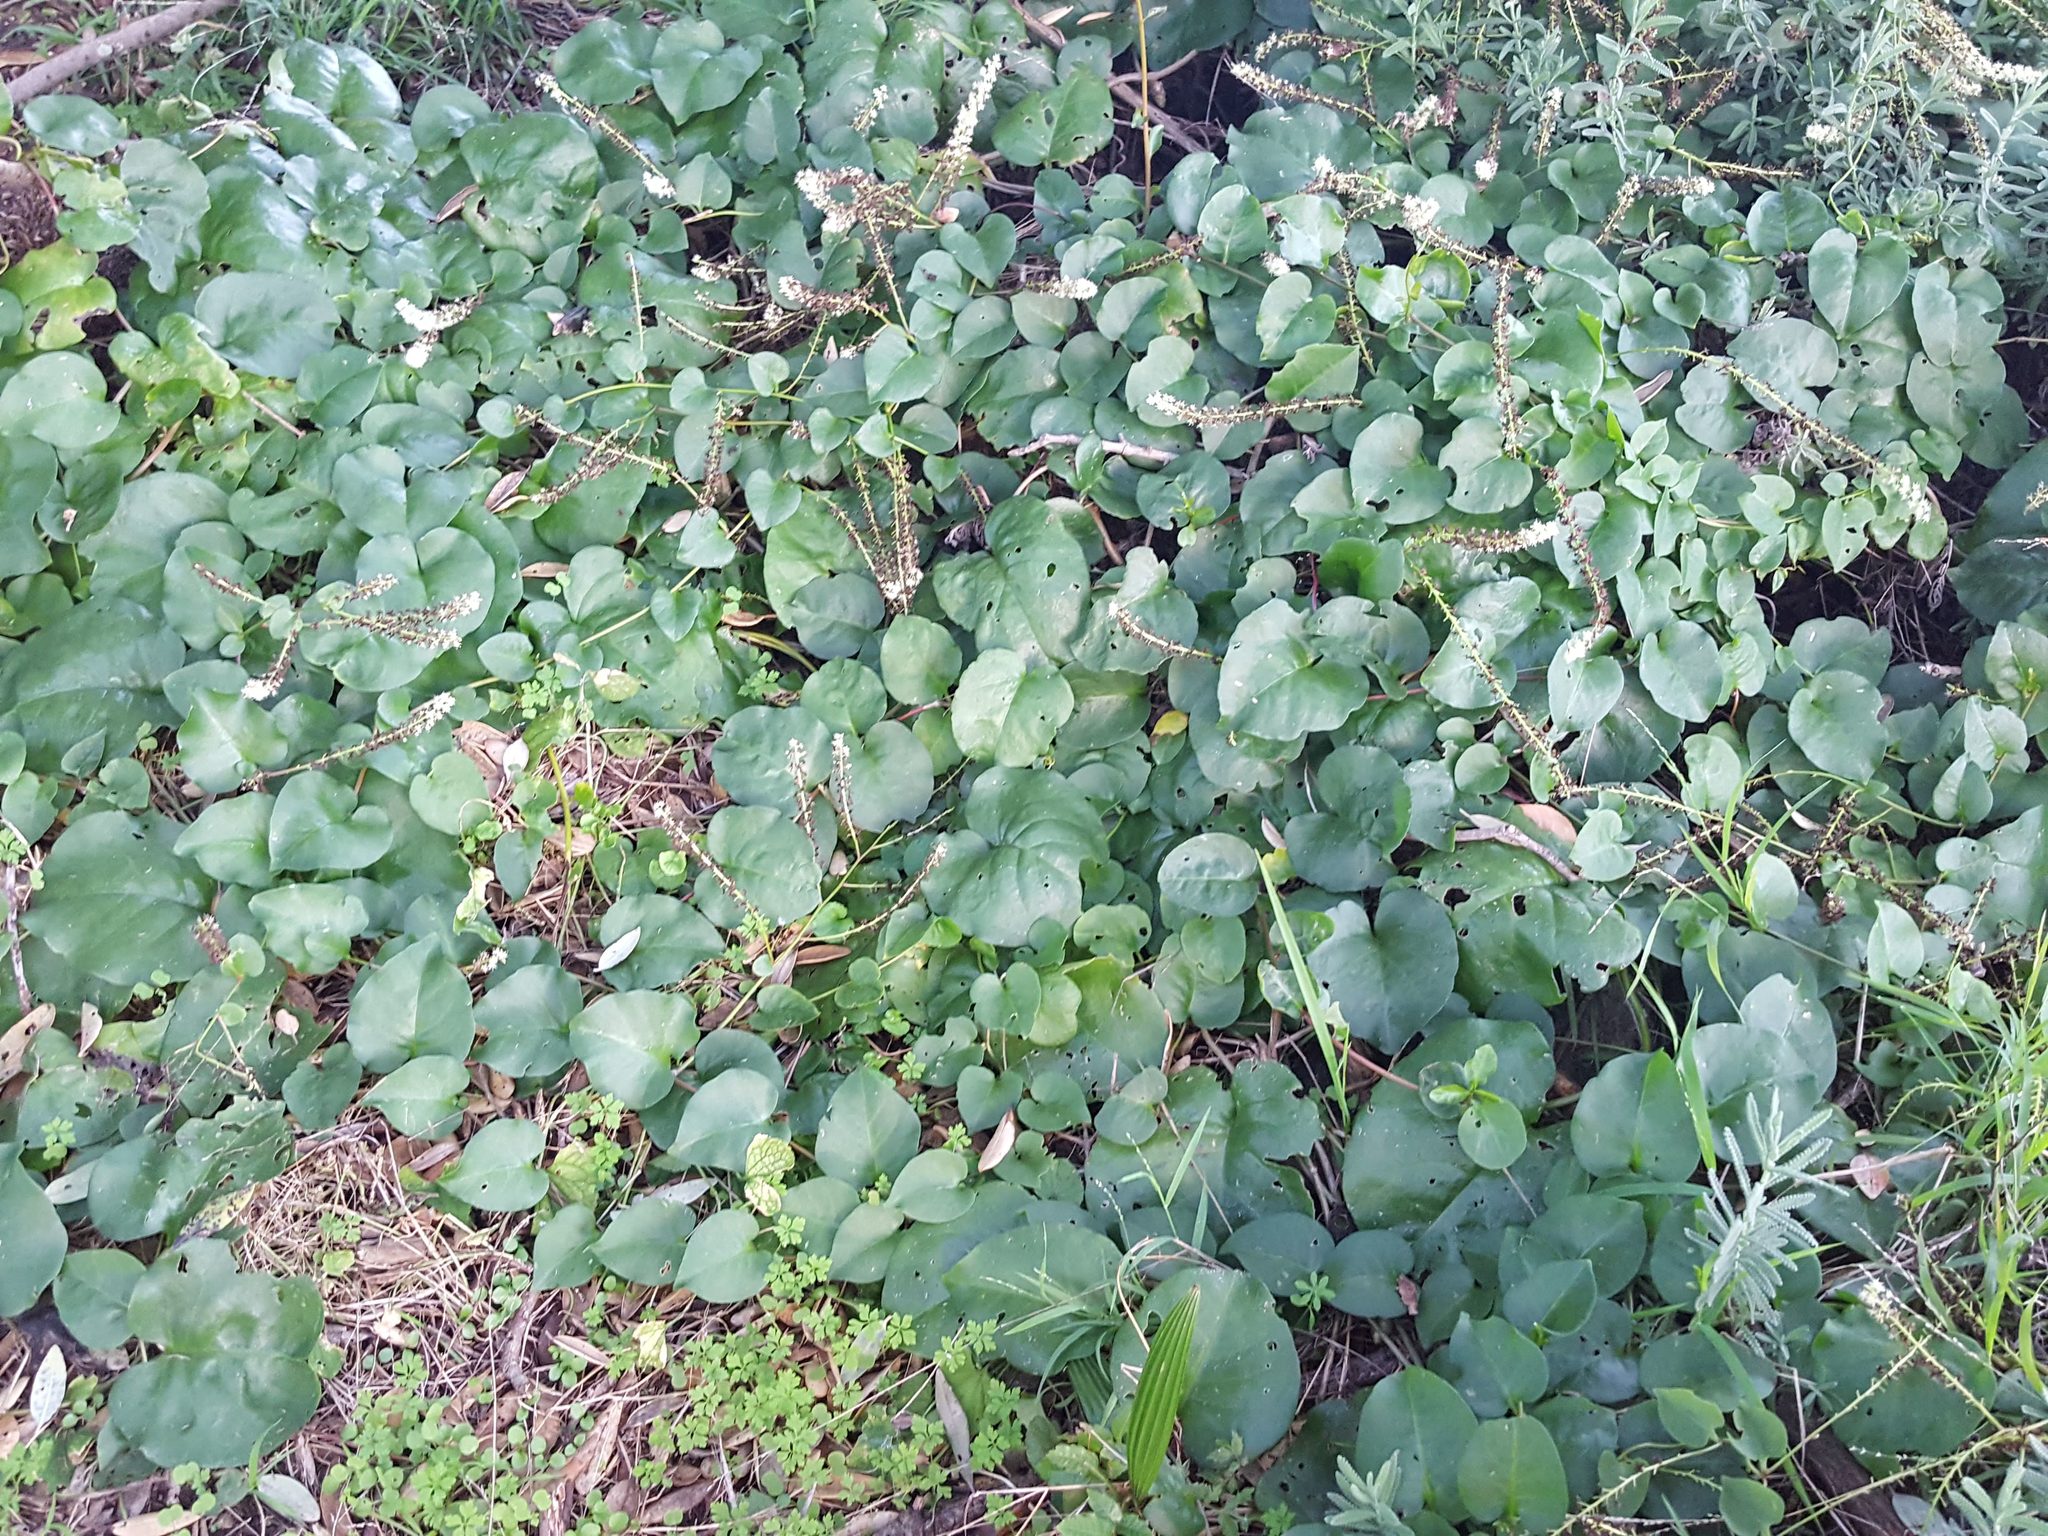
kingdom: Plantae
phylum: Tracheophyta
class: Magnoliopsida
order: Caryophyllales
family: Basellaceae
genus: Anredera
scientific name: Anredera cordifolia
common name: Heartleaf madeiravine
